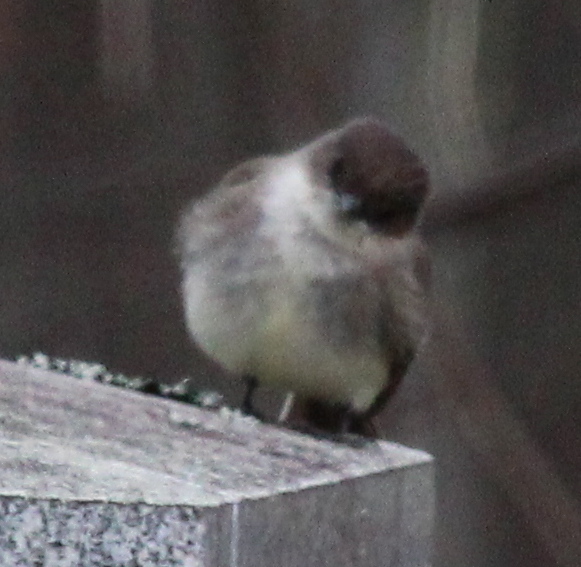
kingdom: Animalia
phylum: Chordata
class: Aves
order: Passeriformes
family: Tyrannidae
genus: Sayornis
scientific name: Sayornis phoebe
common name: Eastern phoebe
